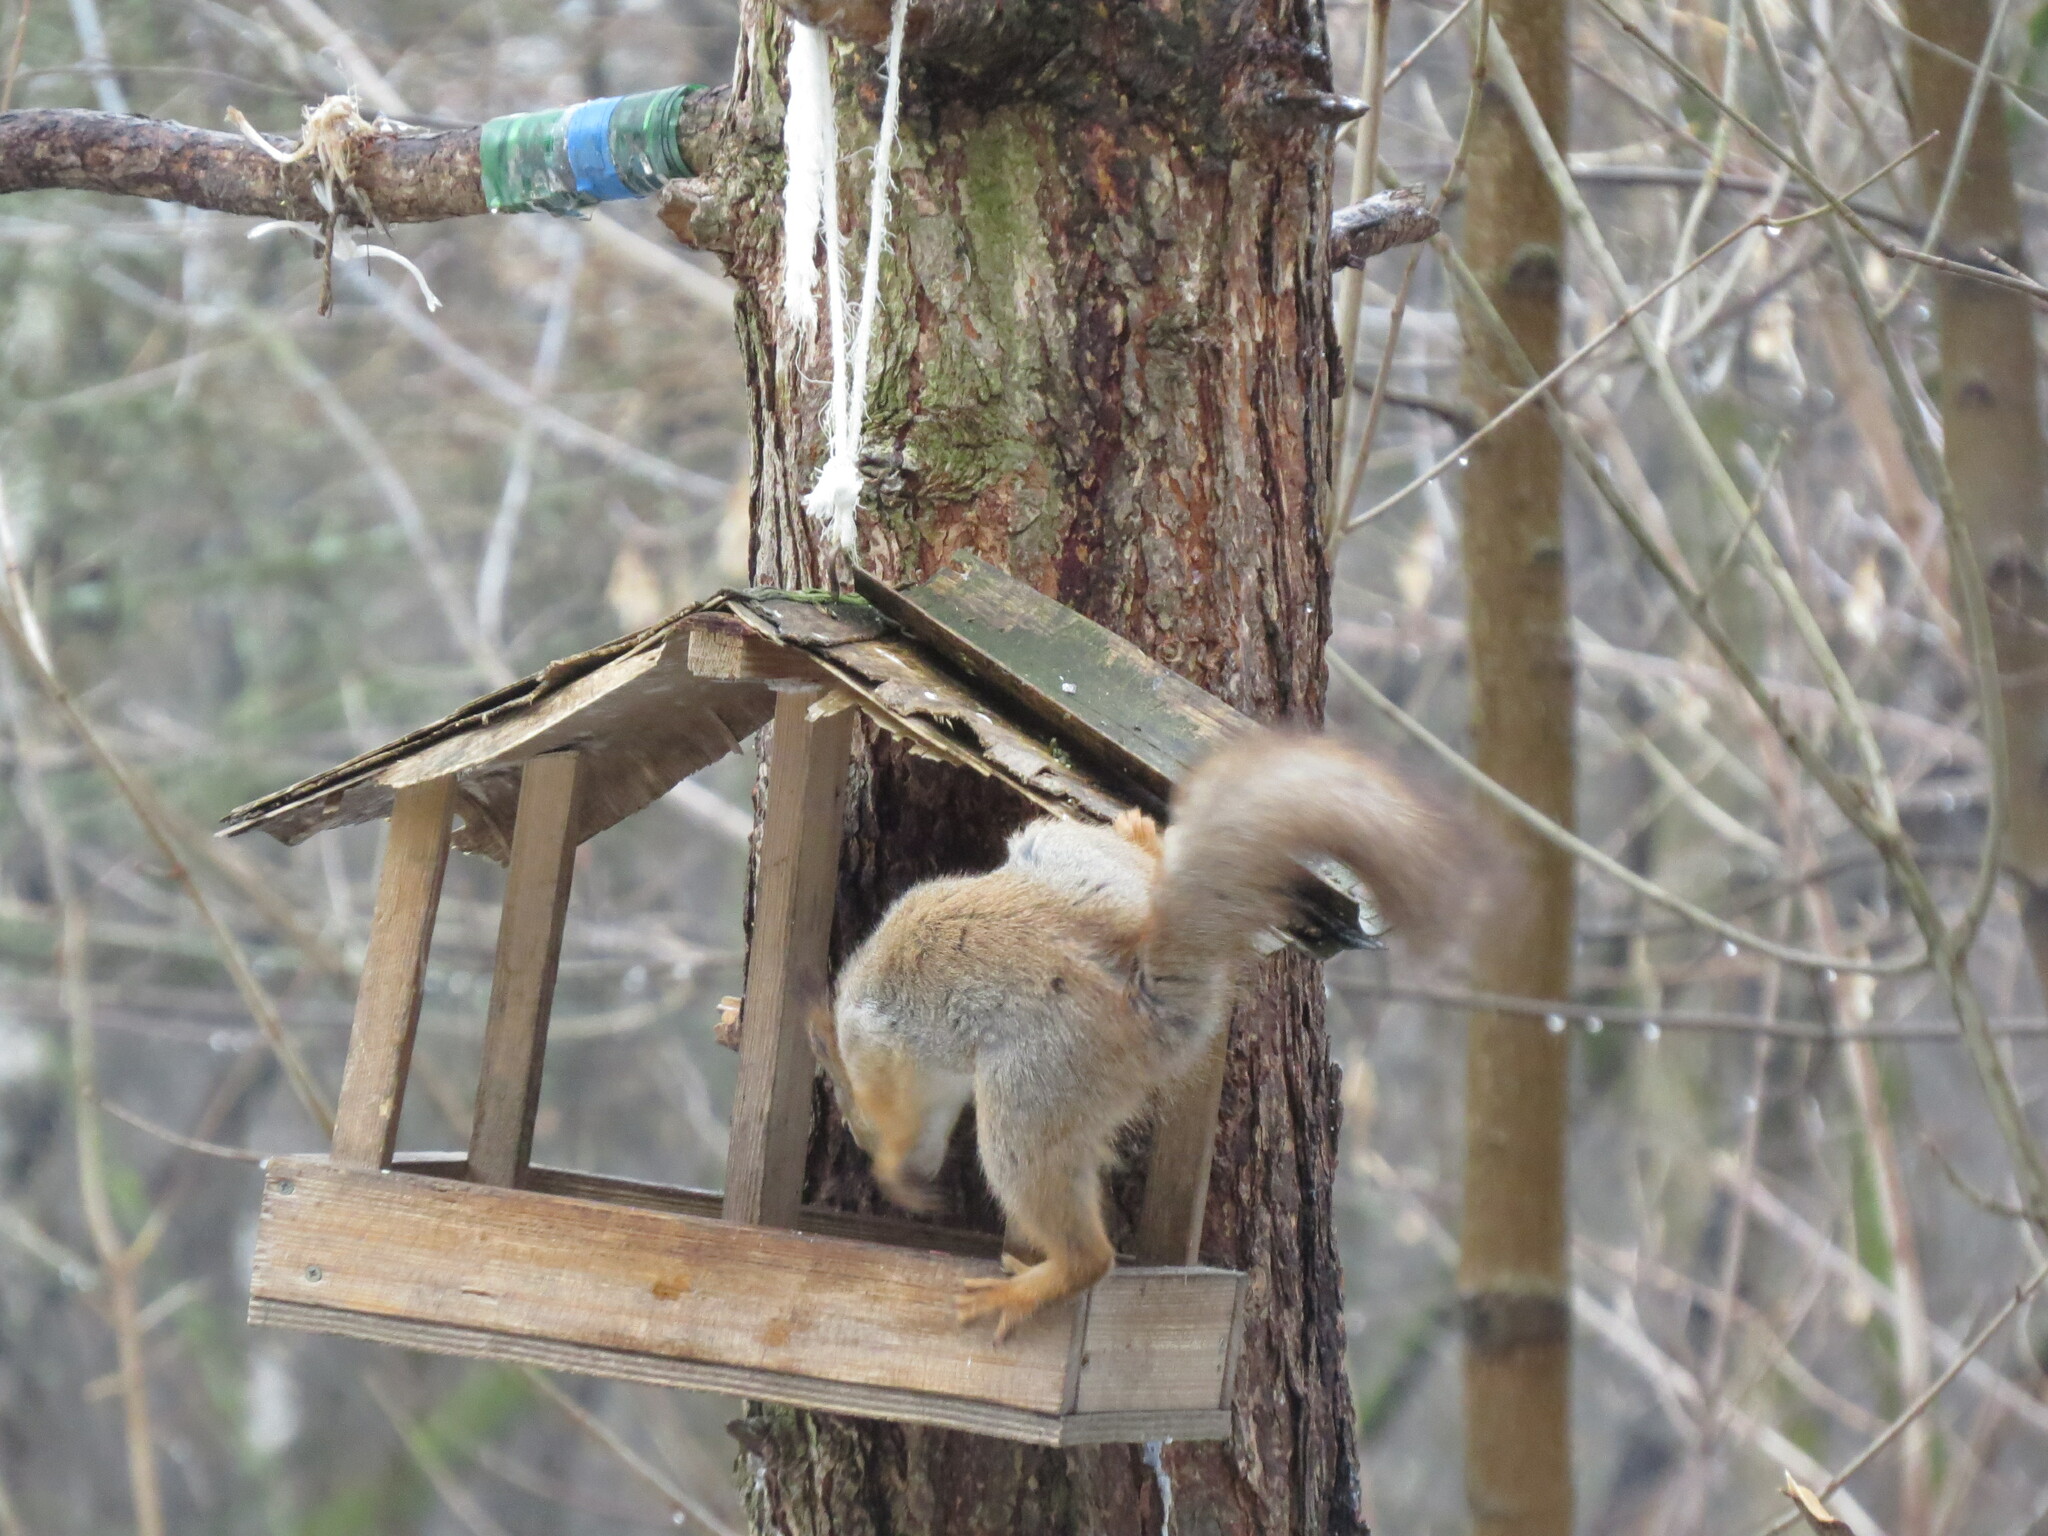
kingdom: Animalia
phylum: Chordata
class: Mammalia
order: Rodentia
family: Sciuridae
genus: Sciurus
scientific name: Sciurus vulgaris
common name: Eurasian red squirrel
